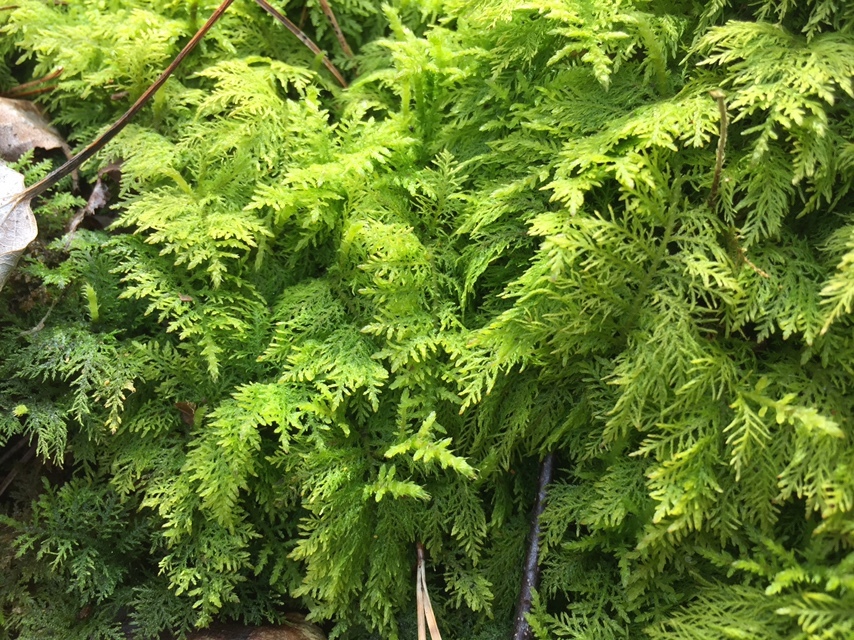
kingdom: Plantae
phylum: Bryophyta
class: Bryopsida
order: Hypnales
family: Thuidiaceae
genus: Thuidium
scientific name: Thuidium tamariscinum
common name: Common tamarisk-moss
